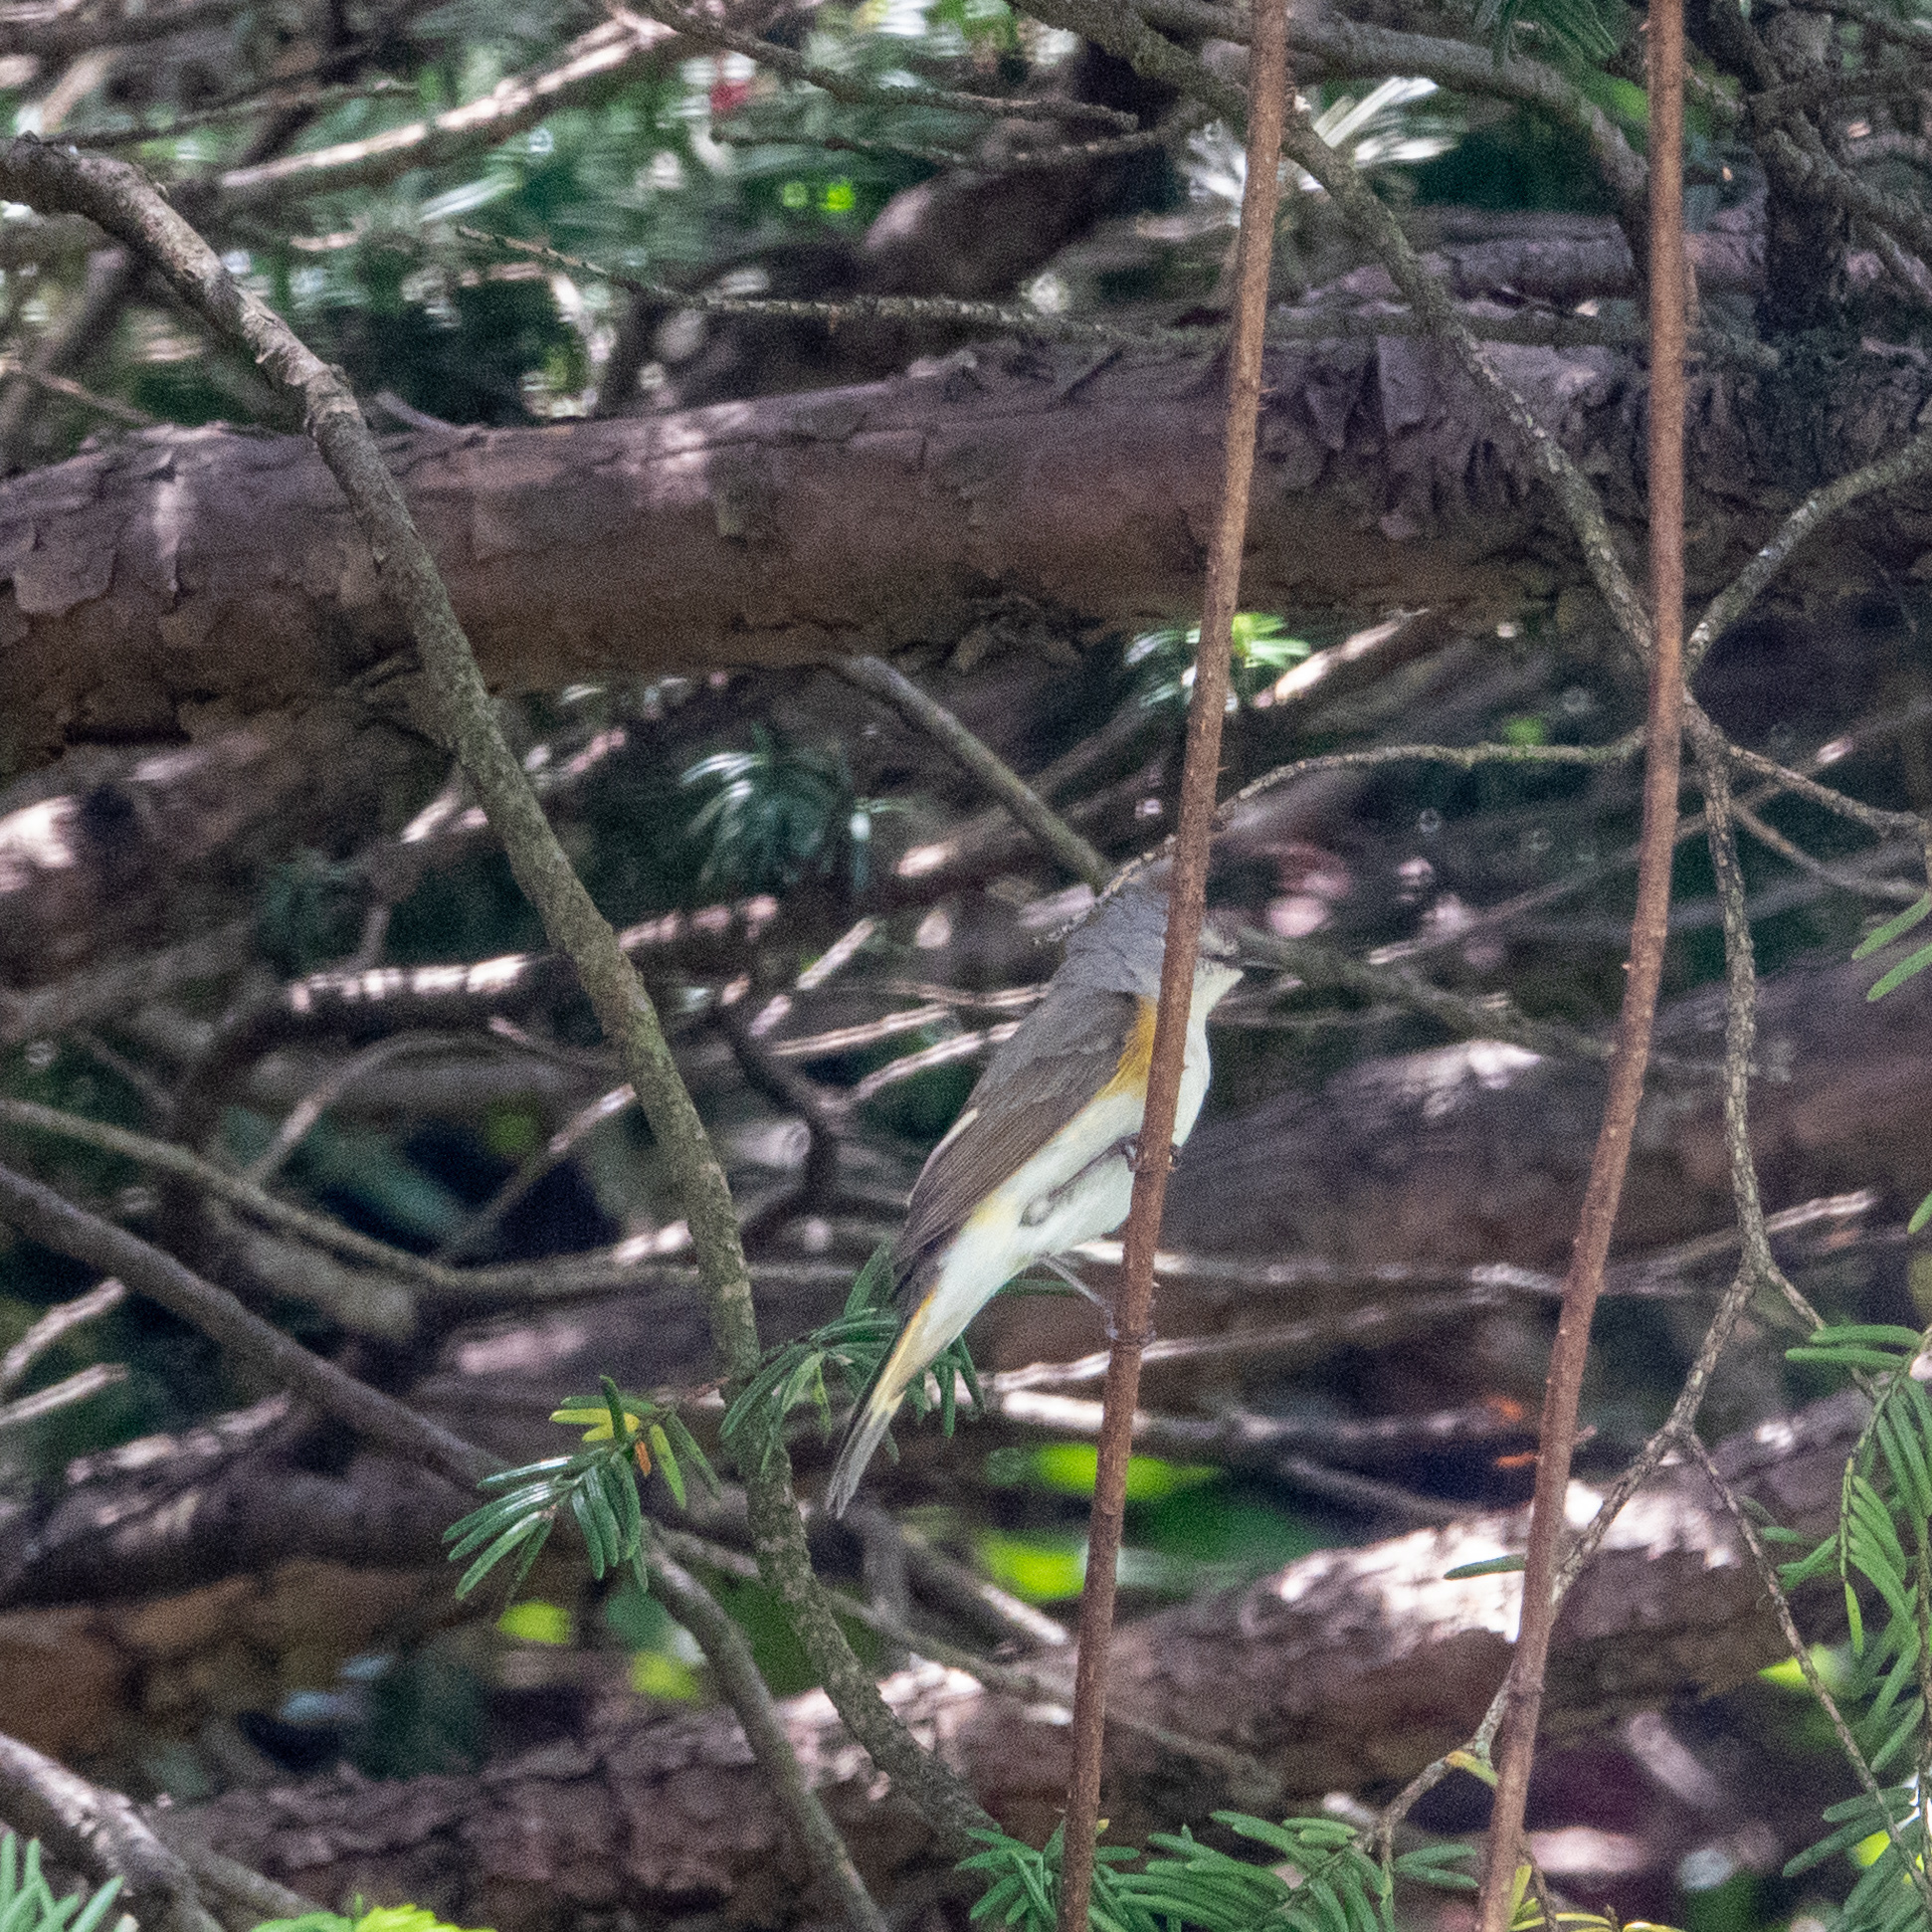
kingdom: Animalia
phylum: Chordata
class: Aves
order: Passeriformes
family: Parulidae
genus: Setophaga
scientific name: Setophaga ruticilla
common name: American redstart
